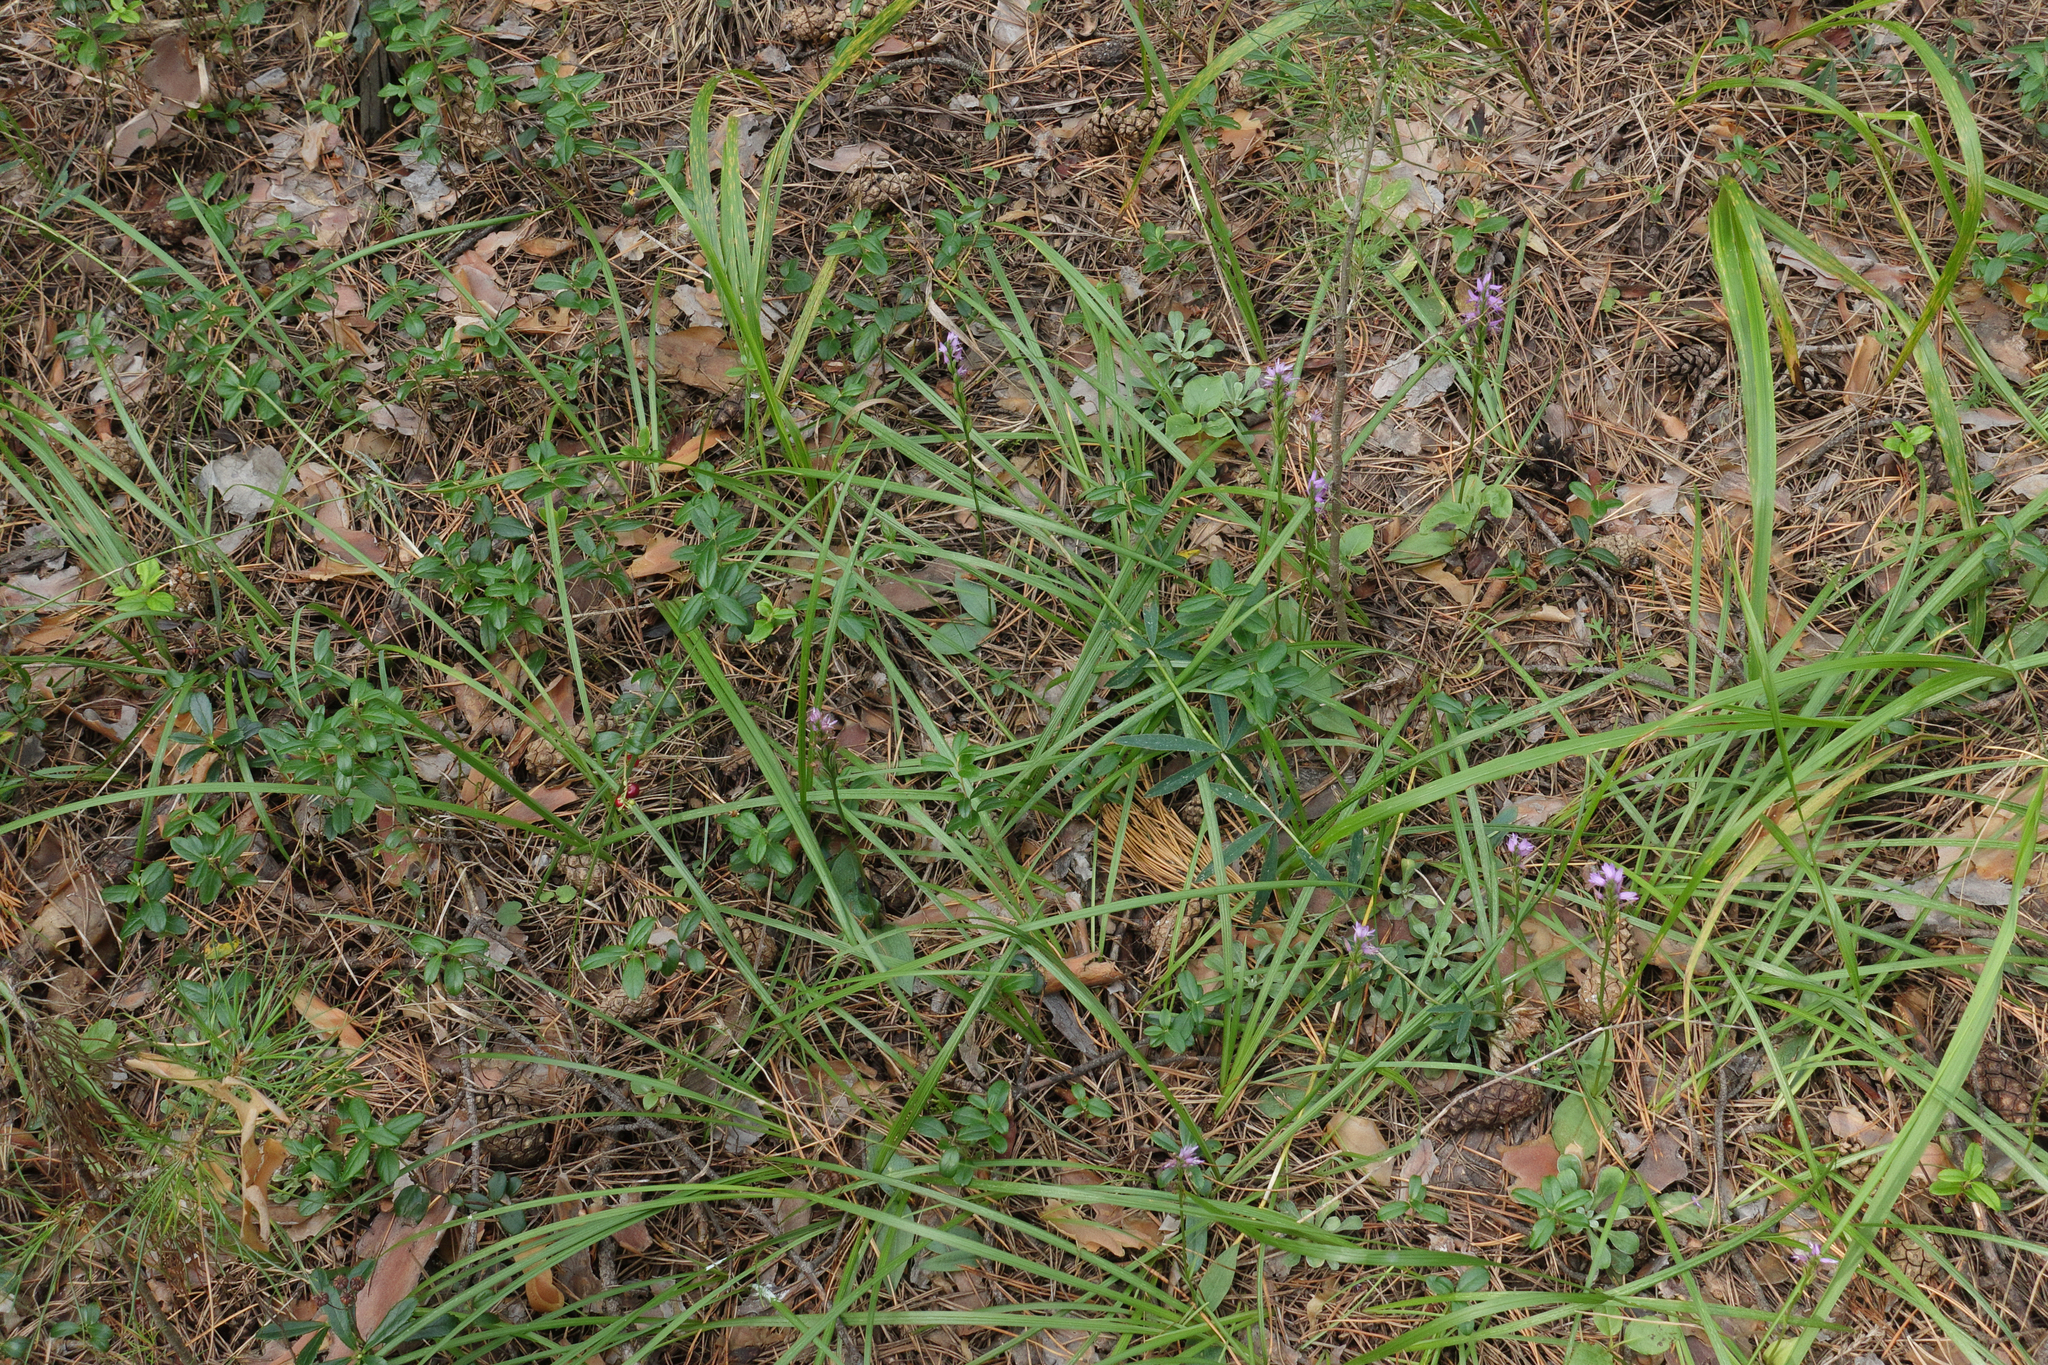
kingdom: Plantae
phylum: Tracheophyta
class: Liliopsida
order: Asparagales
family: Orchidaceae
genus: Hemipilia
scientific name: Hemipilia cucullata
